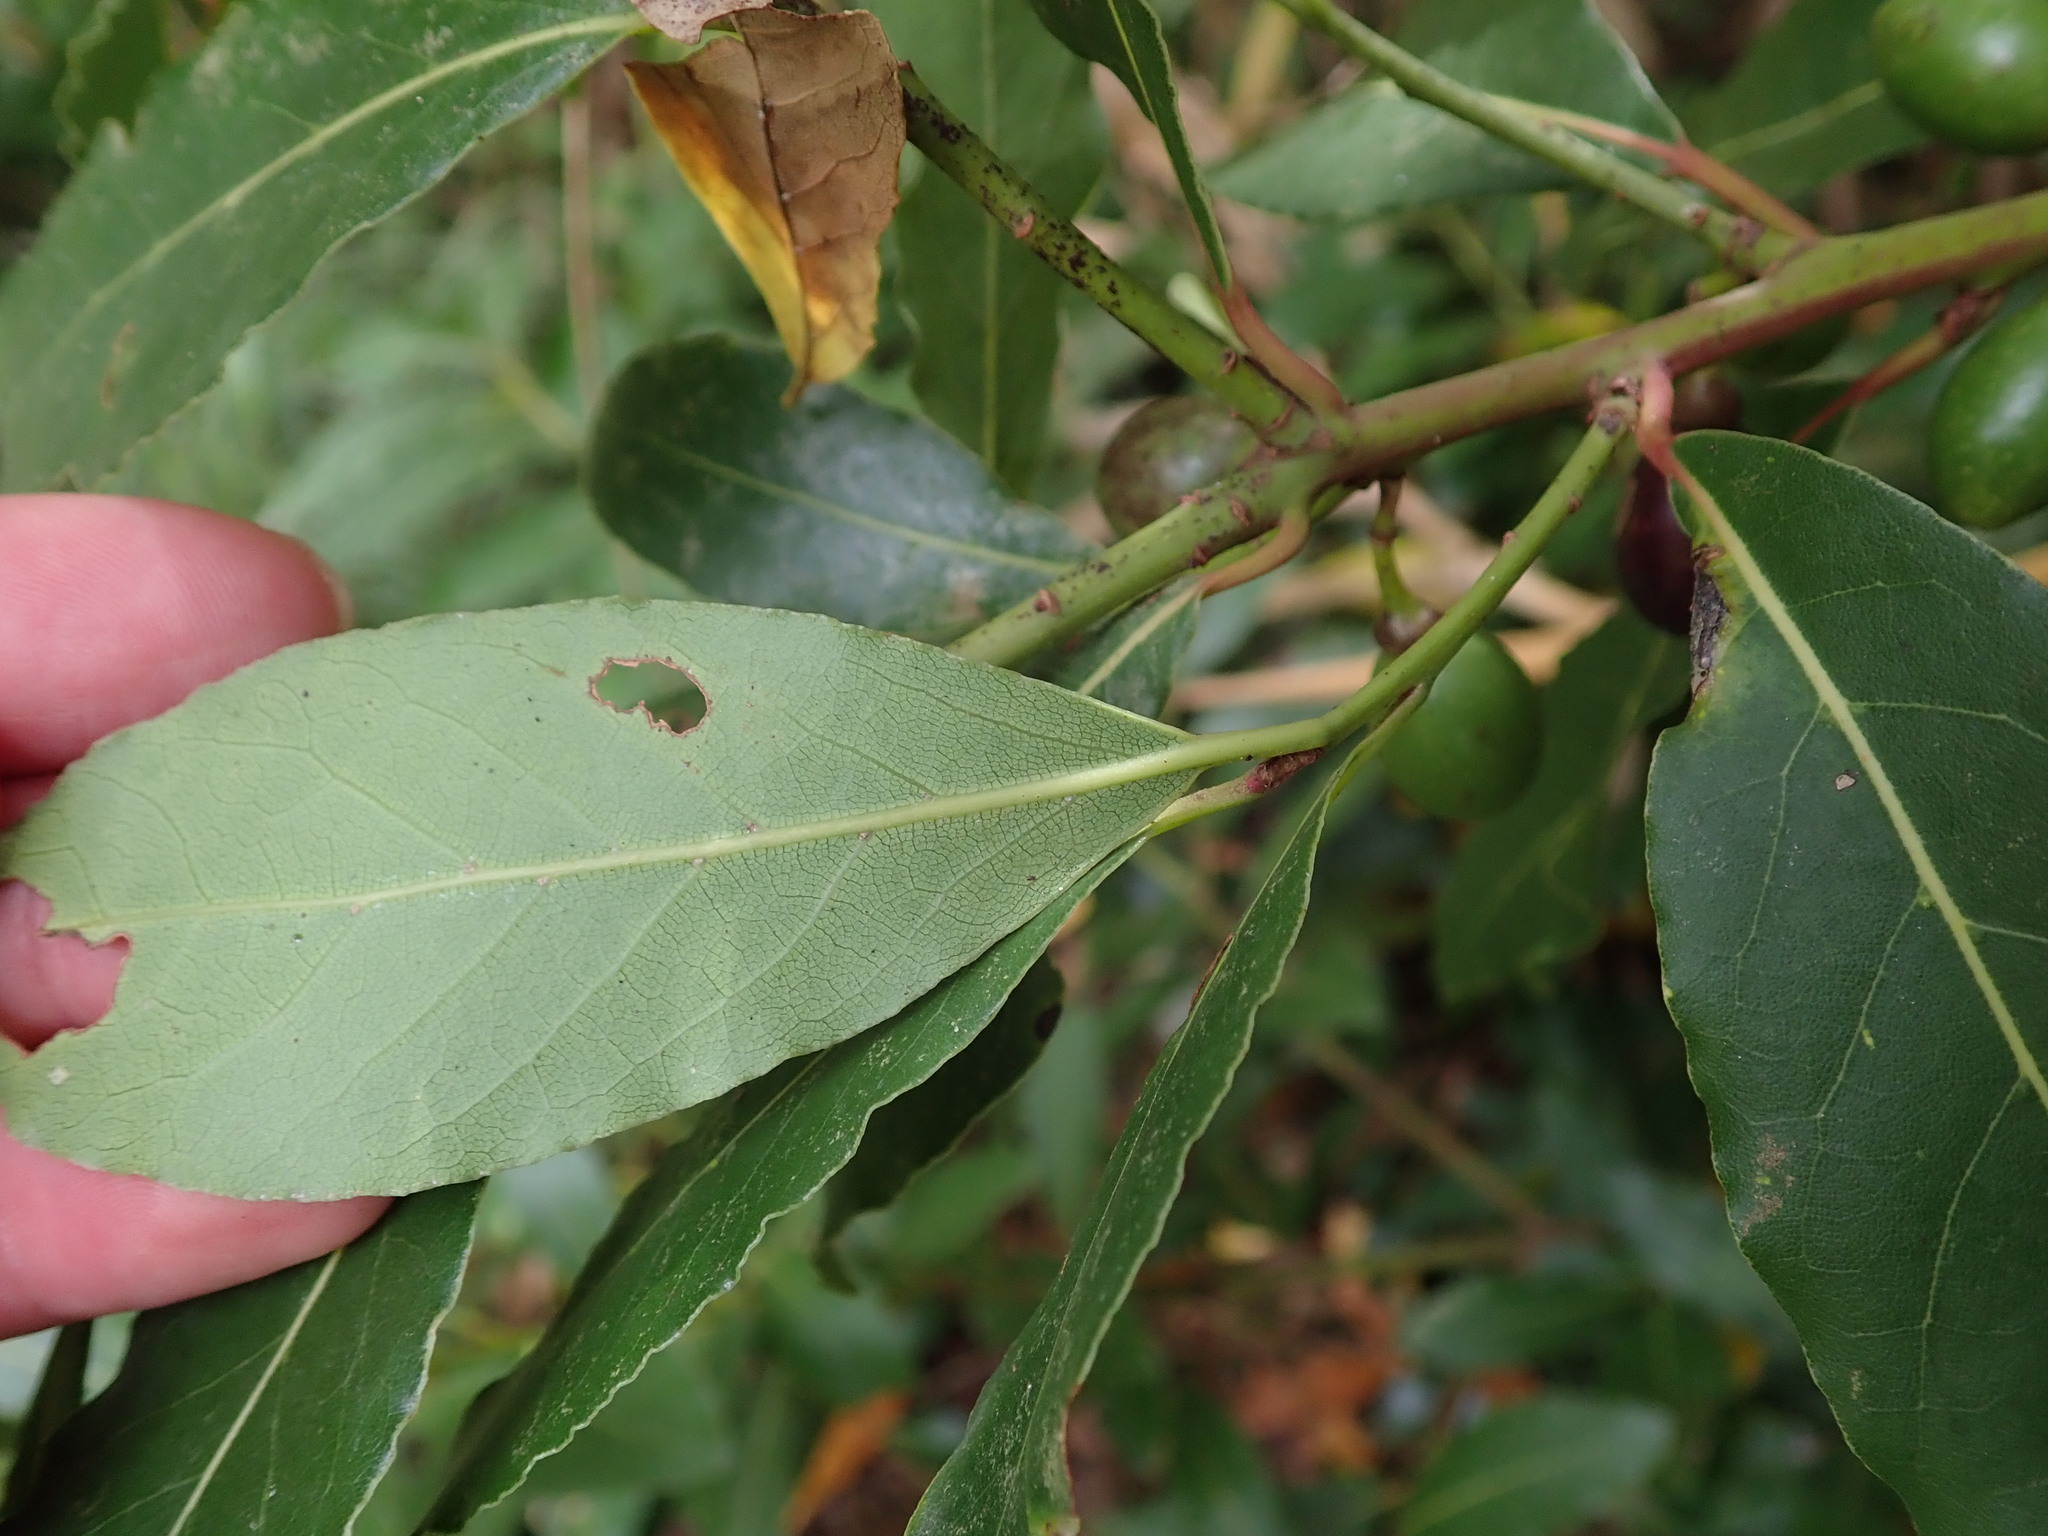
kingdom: Plantae
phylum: Tracheophyta
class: Magnoliopsida
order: Laurales
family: Lauraceae
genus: Laurus
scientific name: Laurus nobilis
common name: Bay
